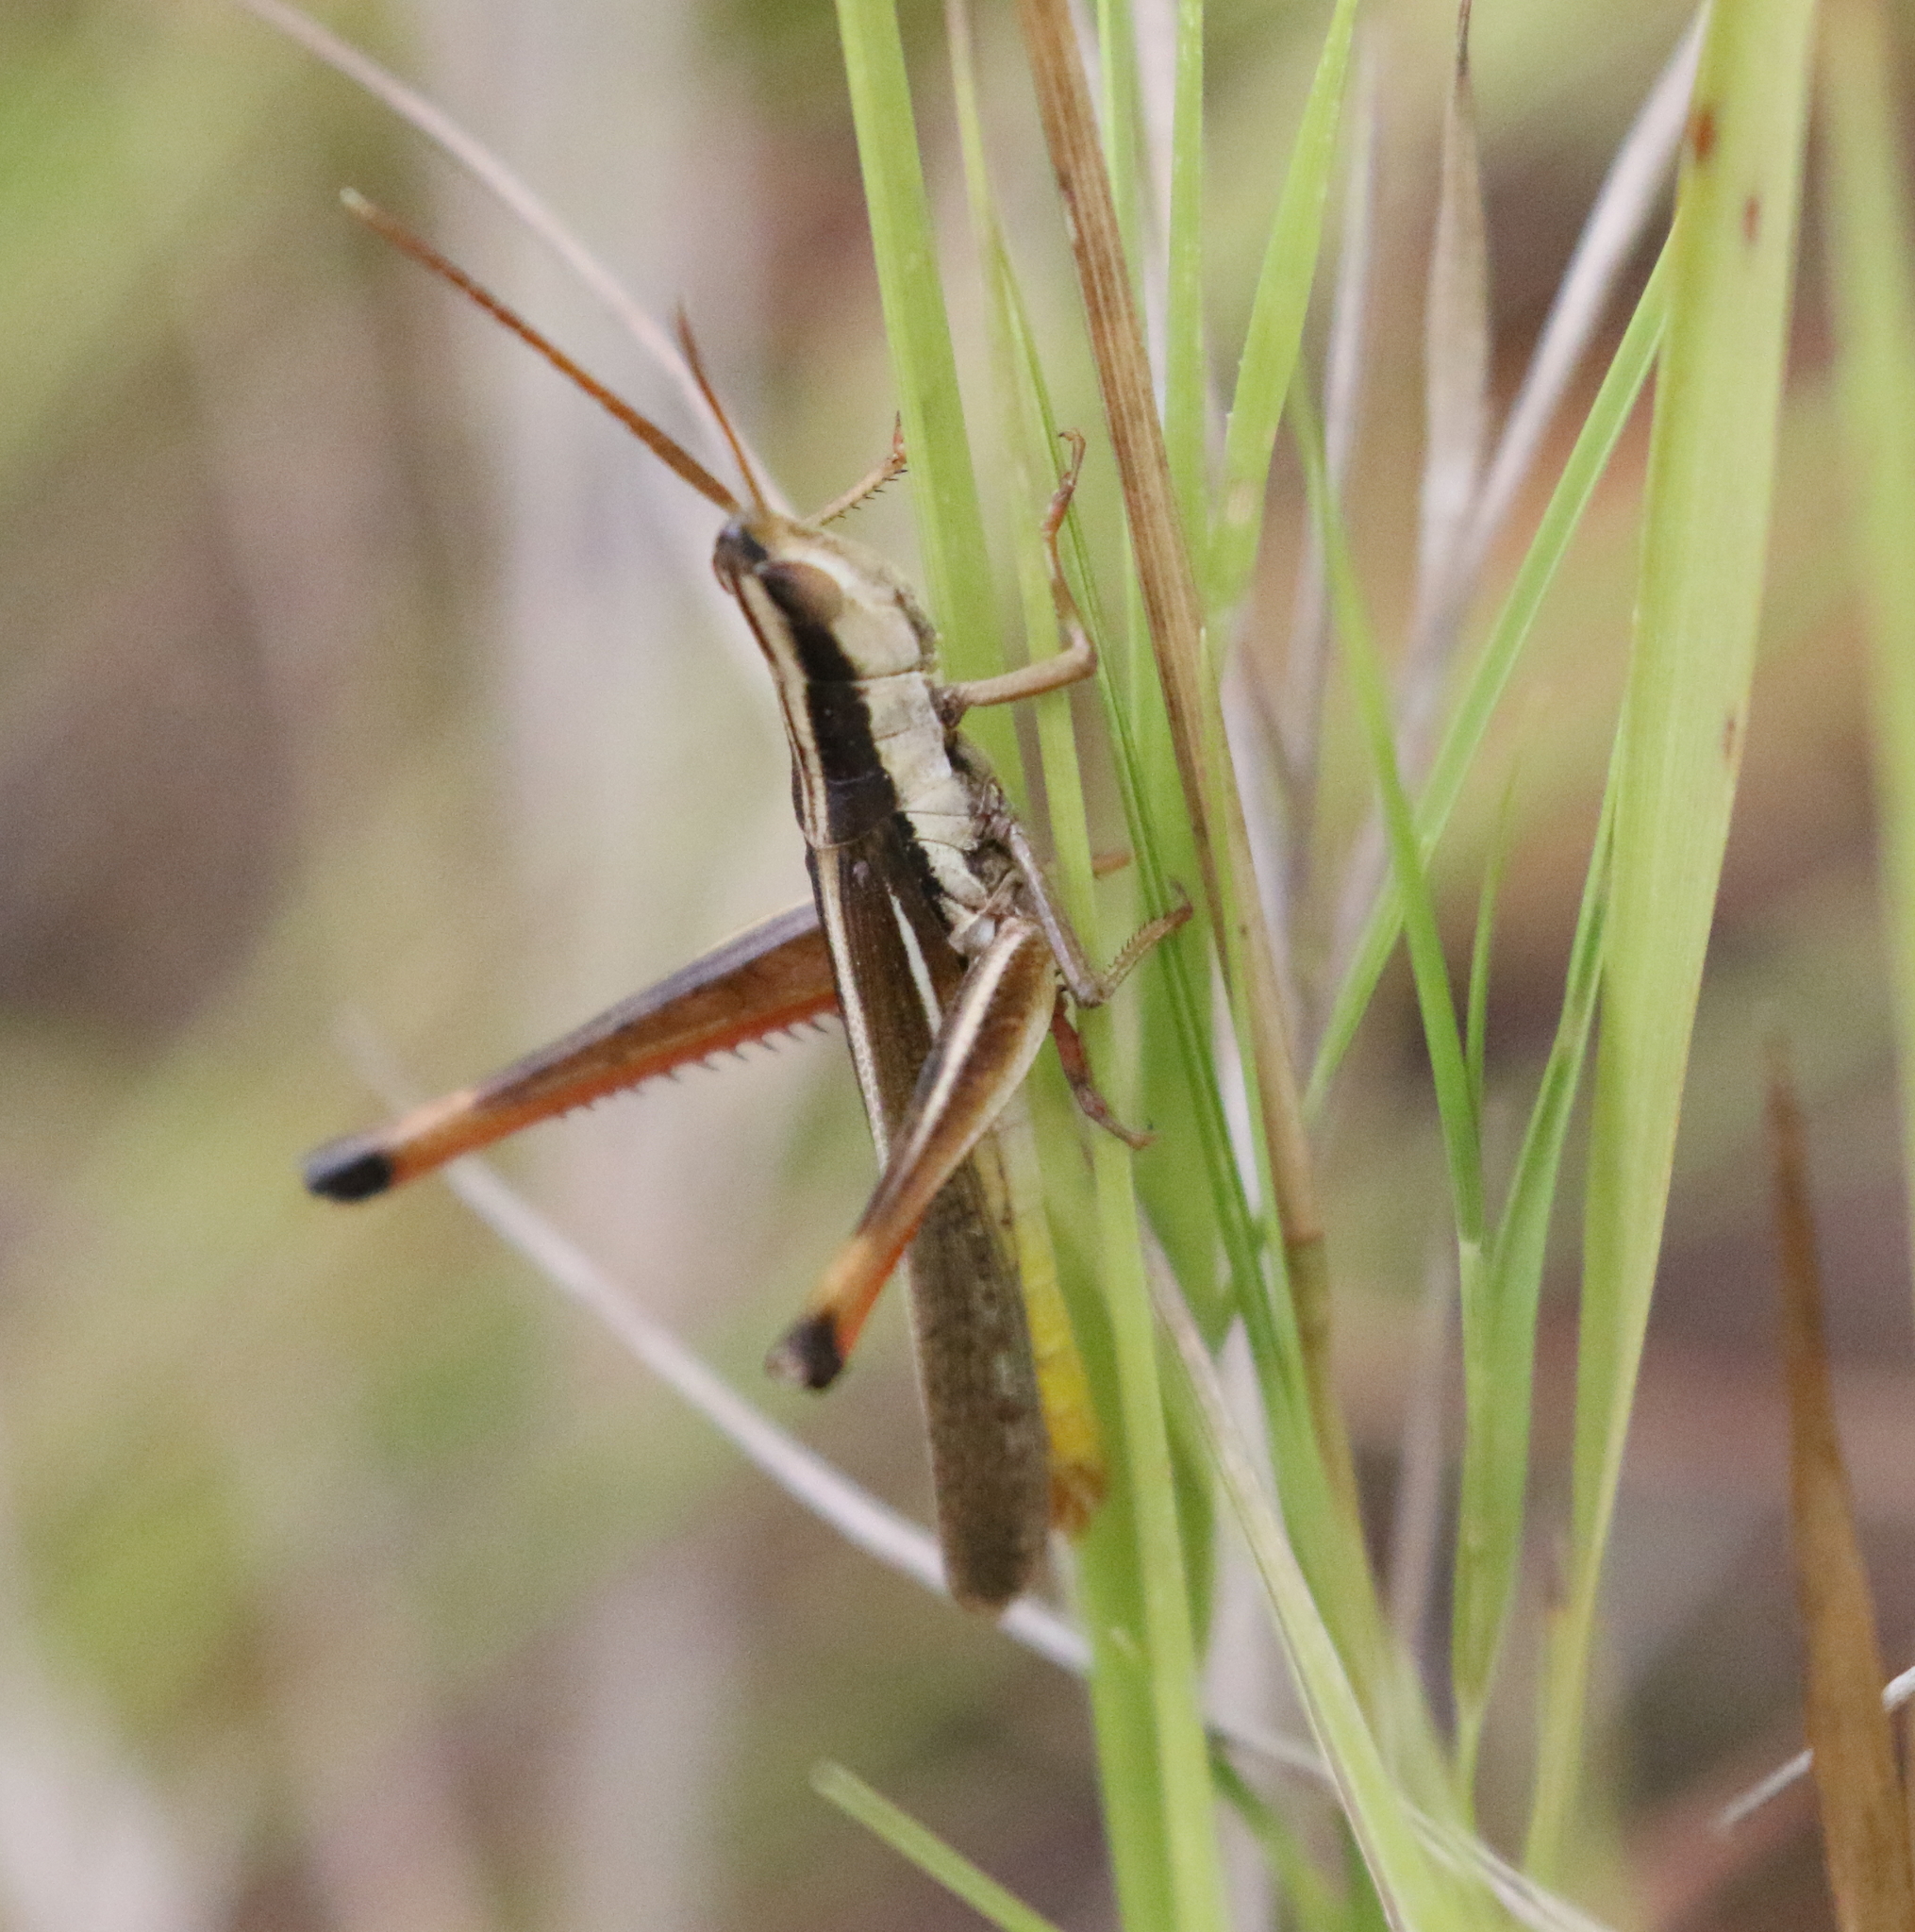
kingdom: Animalia
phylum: Arthropoda
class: Insecta
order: Orthoptera
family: Acrididae
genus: Mermiria
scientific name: Mermiria bivittata
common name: Two-striped mermiria grasshopper
